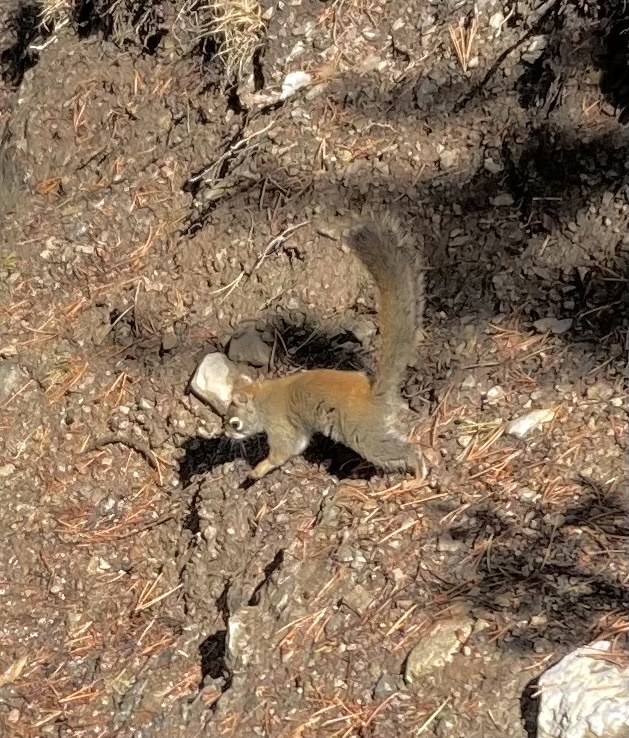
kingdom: Animalia
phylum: Chordata
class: Mammalia
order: Rodentia
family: Sciuridae
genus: Tamiasciurus
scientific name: Tamiasciurus hudsonicus
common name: Red squirrel
